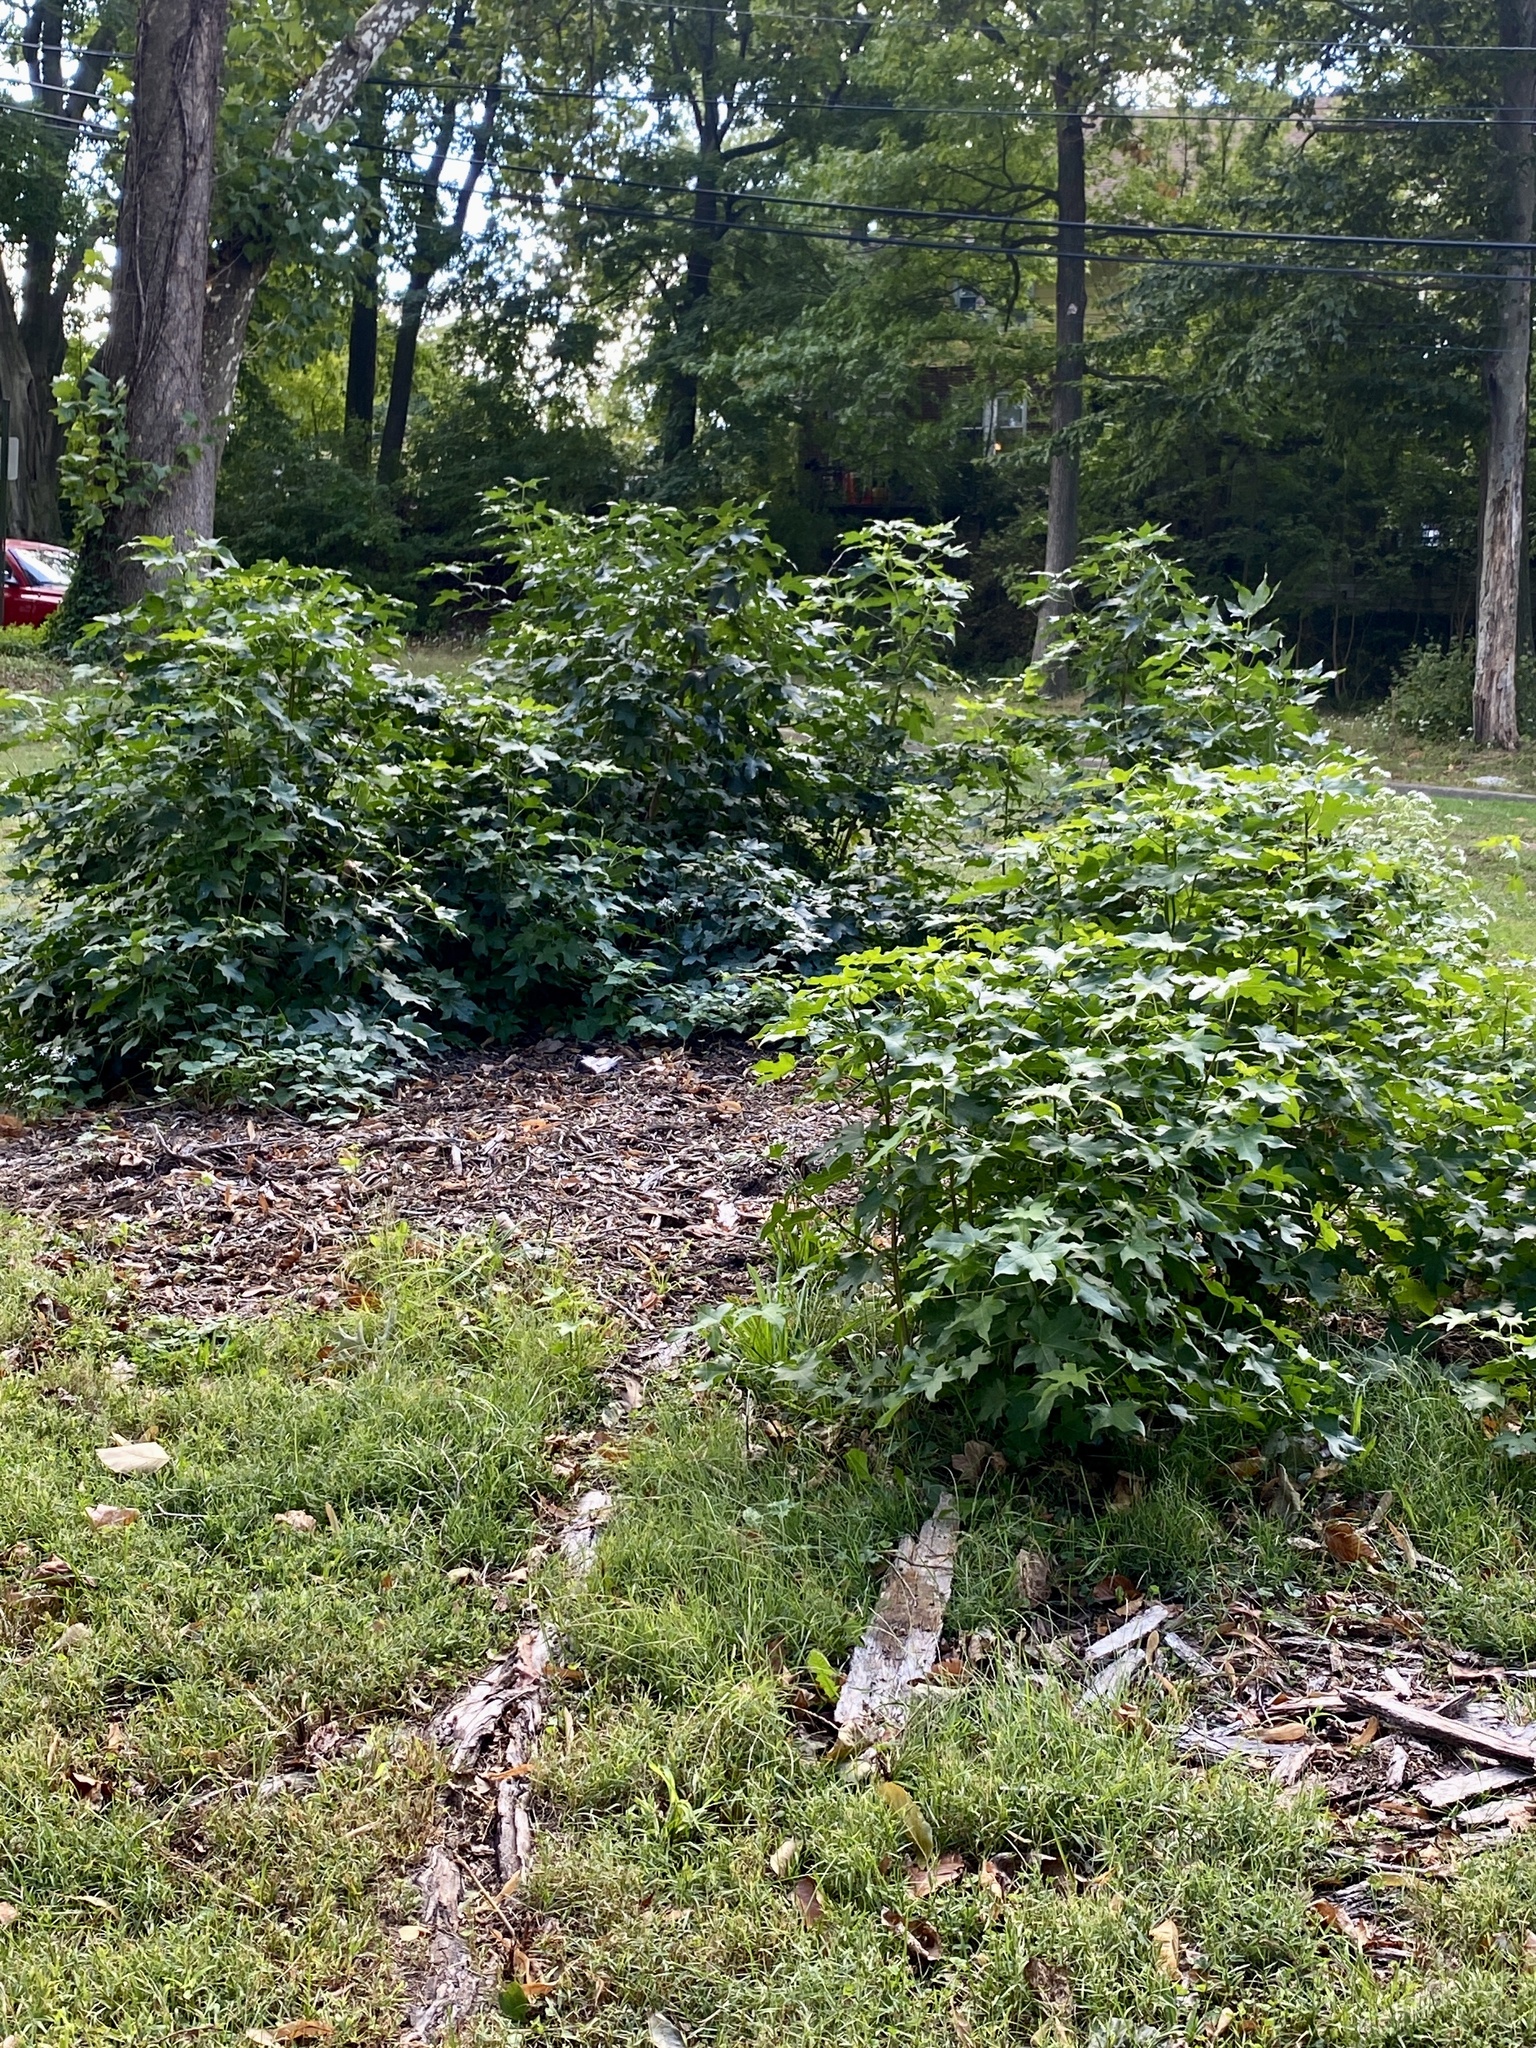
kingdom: Plantae
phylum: Tracheophyta
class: Magnoliopsida
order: Saxifragales
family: Altingiaceae
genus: Liquidambar
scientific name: Liquidambar styraciflua
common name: Sweet gum
